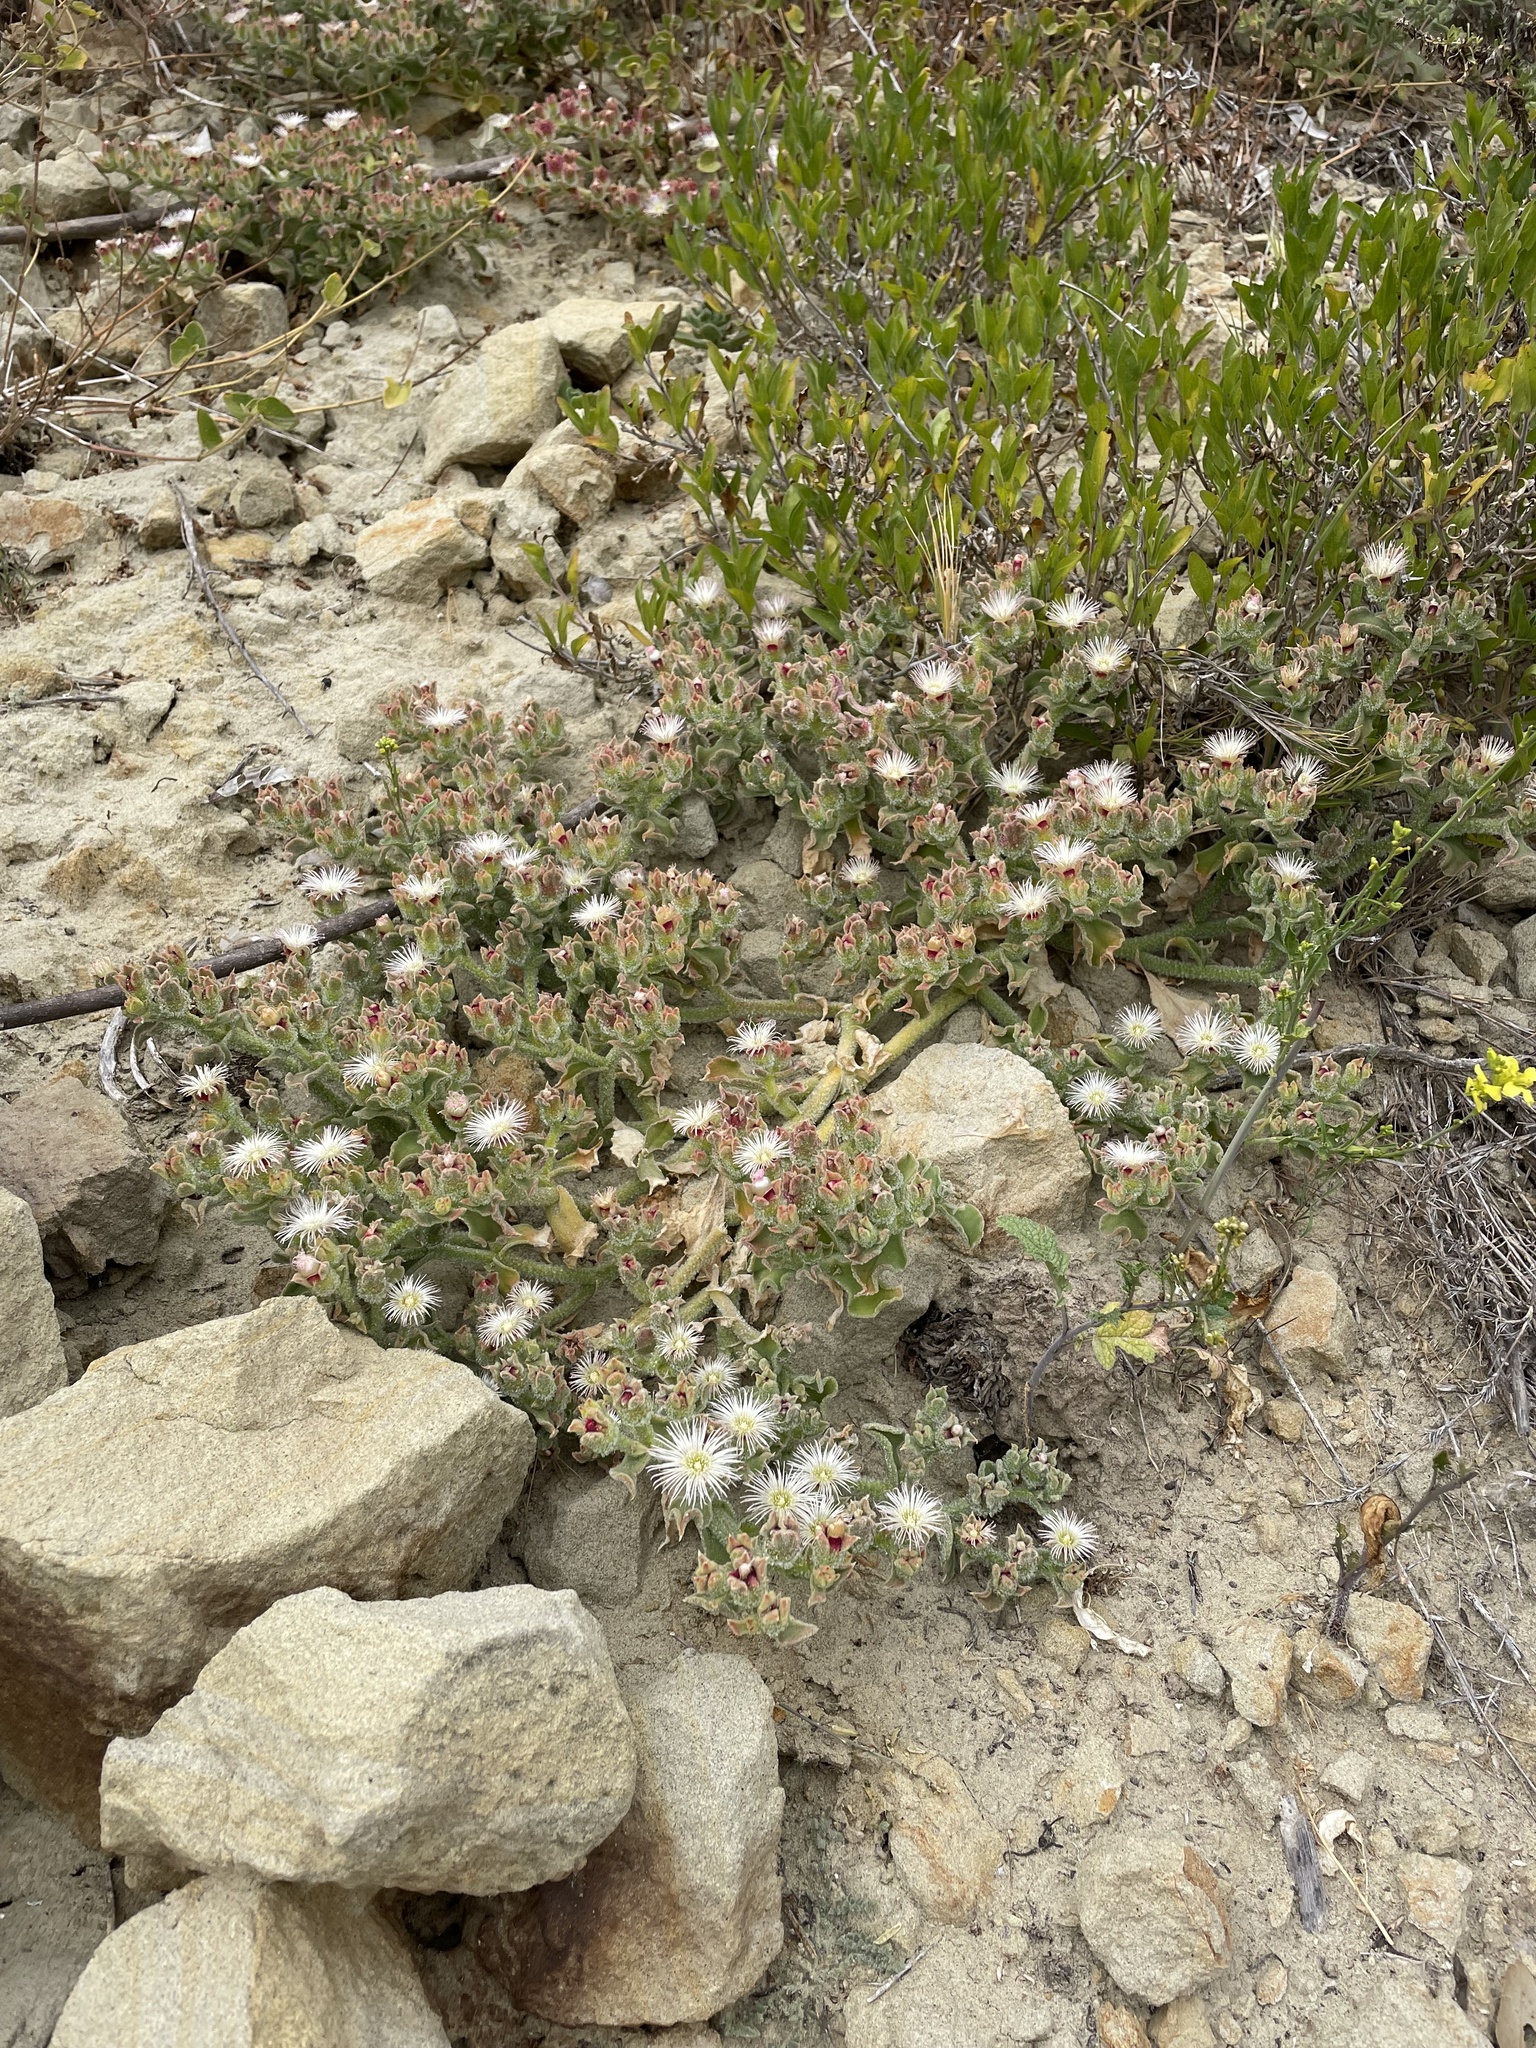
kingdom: Plantae
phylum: Tracheophyta
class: Magnoliopsida
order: Caryophyllales
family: Aizoaceae
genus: Mesembryanthemum
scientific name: Mesembryanthemum crystallinum
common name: Common iceplant
